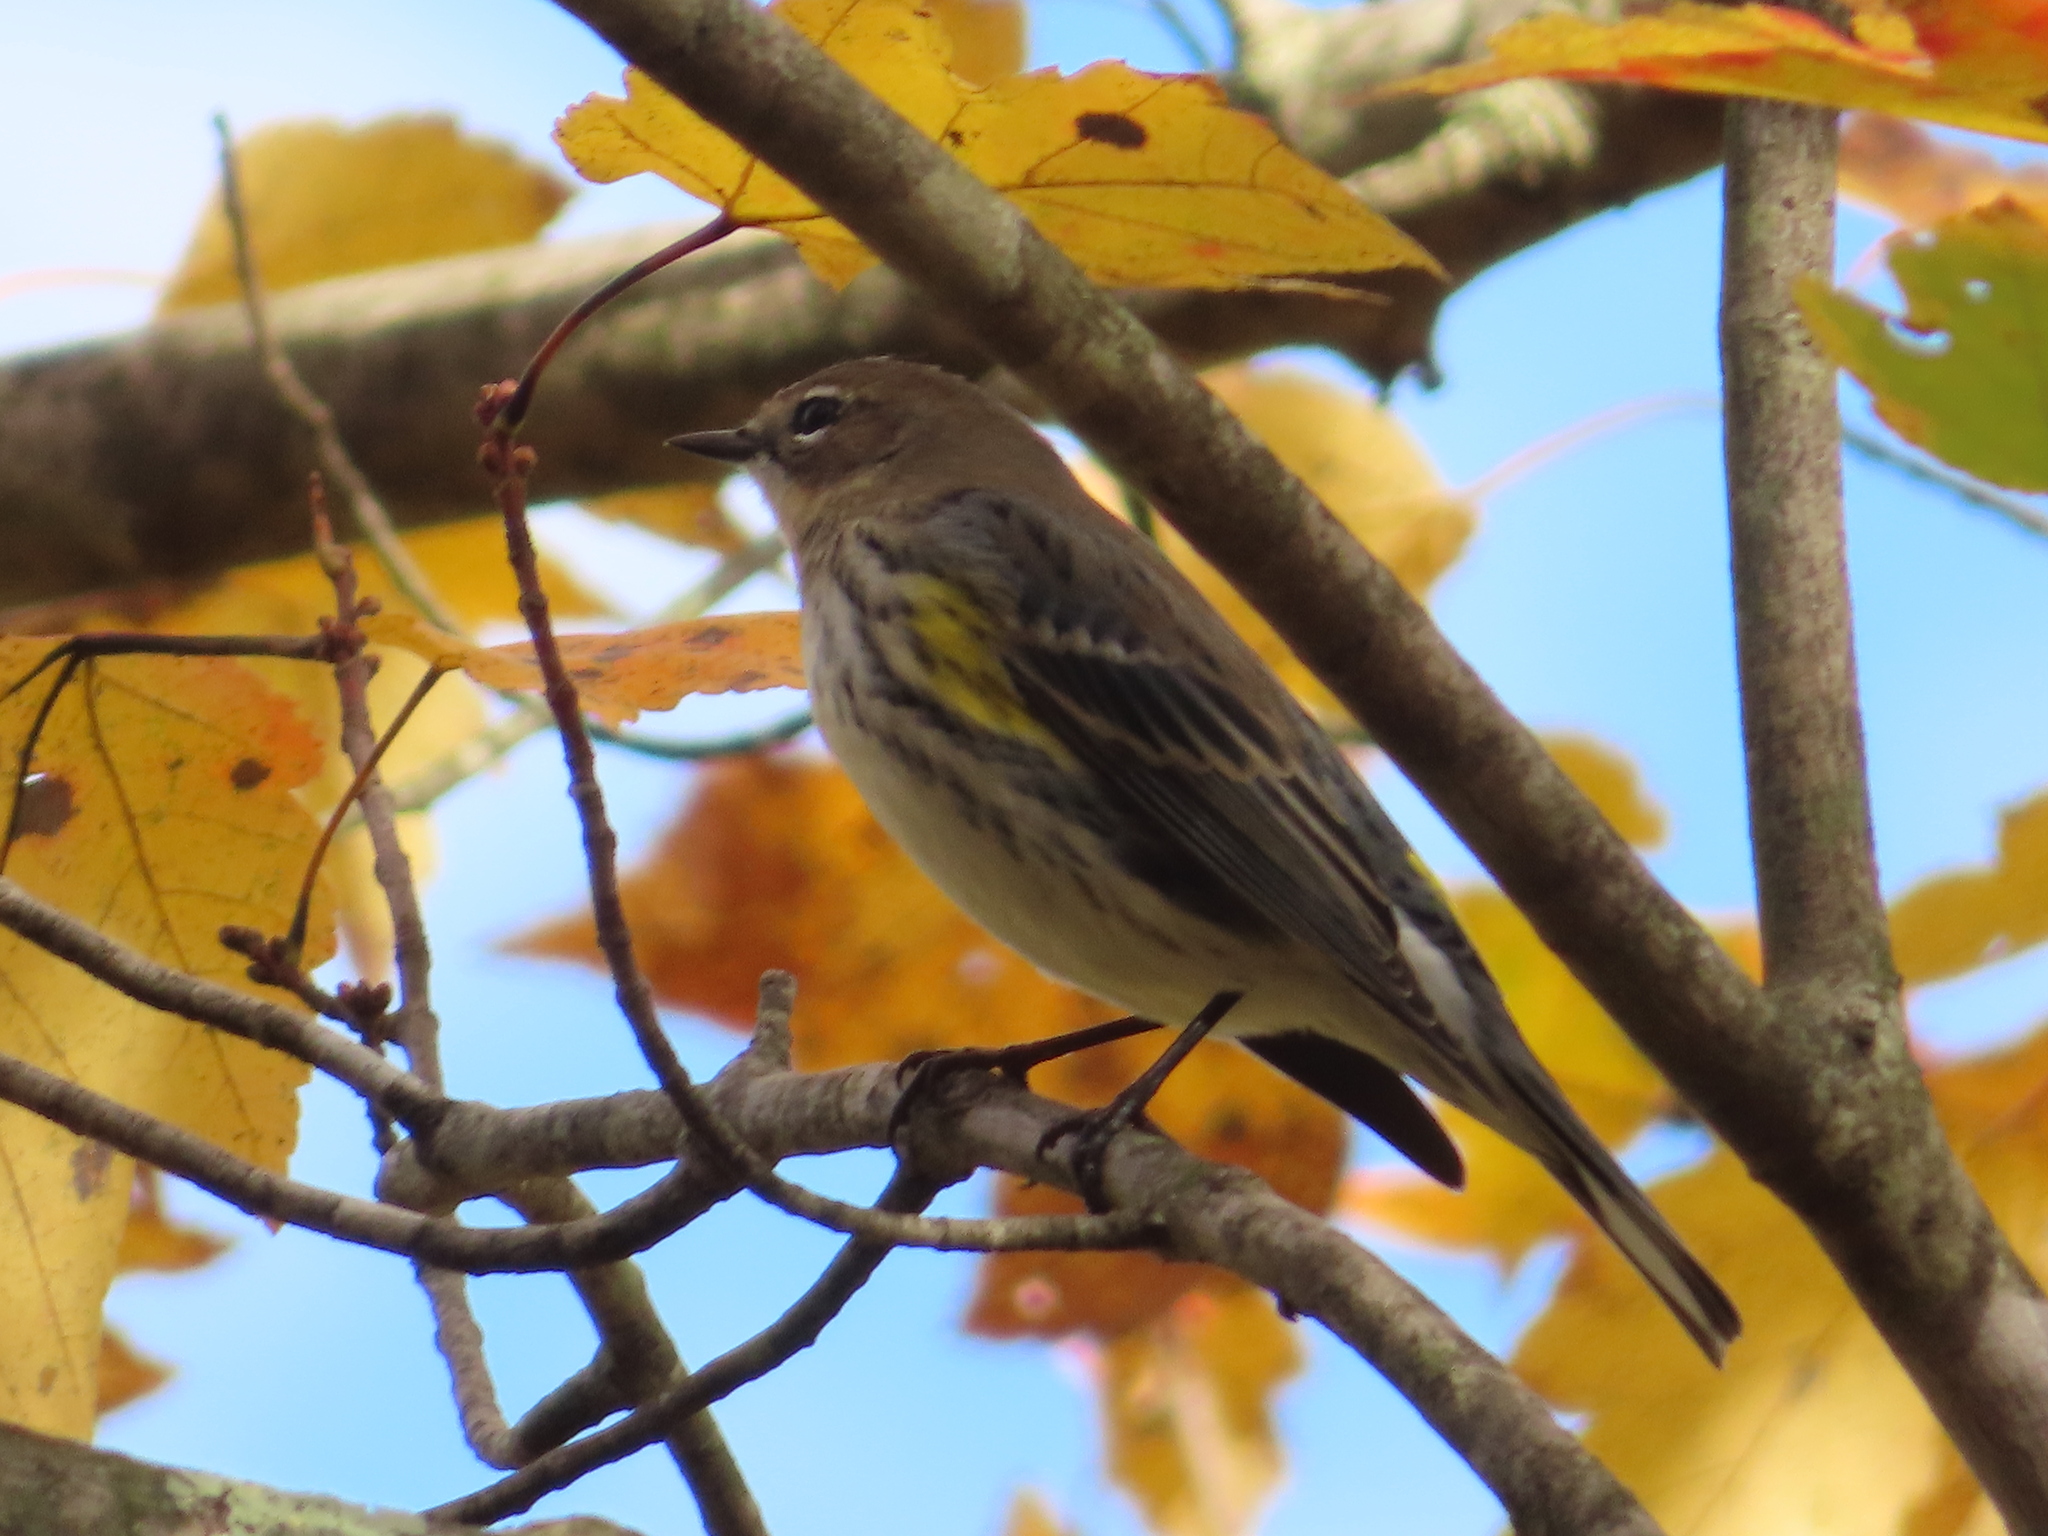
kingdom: Animalia
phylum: Chordata
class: Aves
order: Passeriformes
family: Parulidae
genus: Setophaga
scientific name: Setophaga coronata
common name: Myrtle warbler
